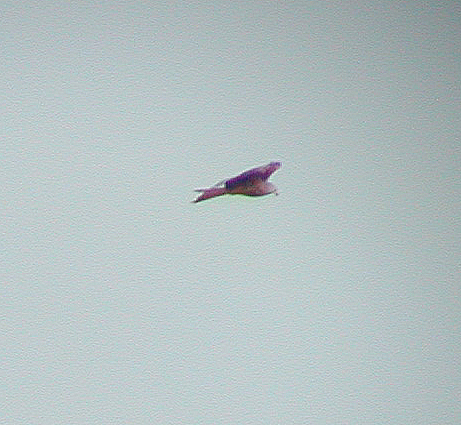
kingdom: Animalia
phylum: Chordata
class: Aves
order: Accipitriformes
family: Accipitridae
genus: Milvus
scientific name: Milvus milvus
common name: Red kite
